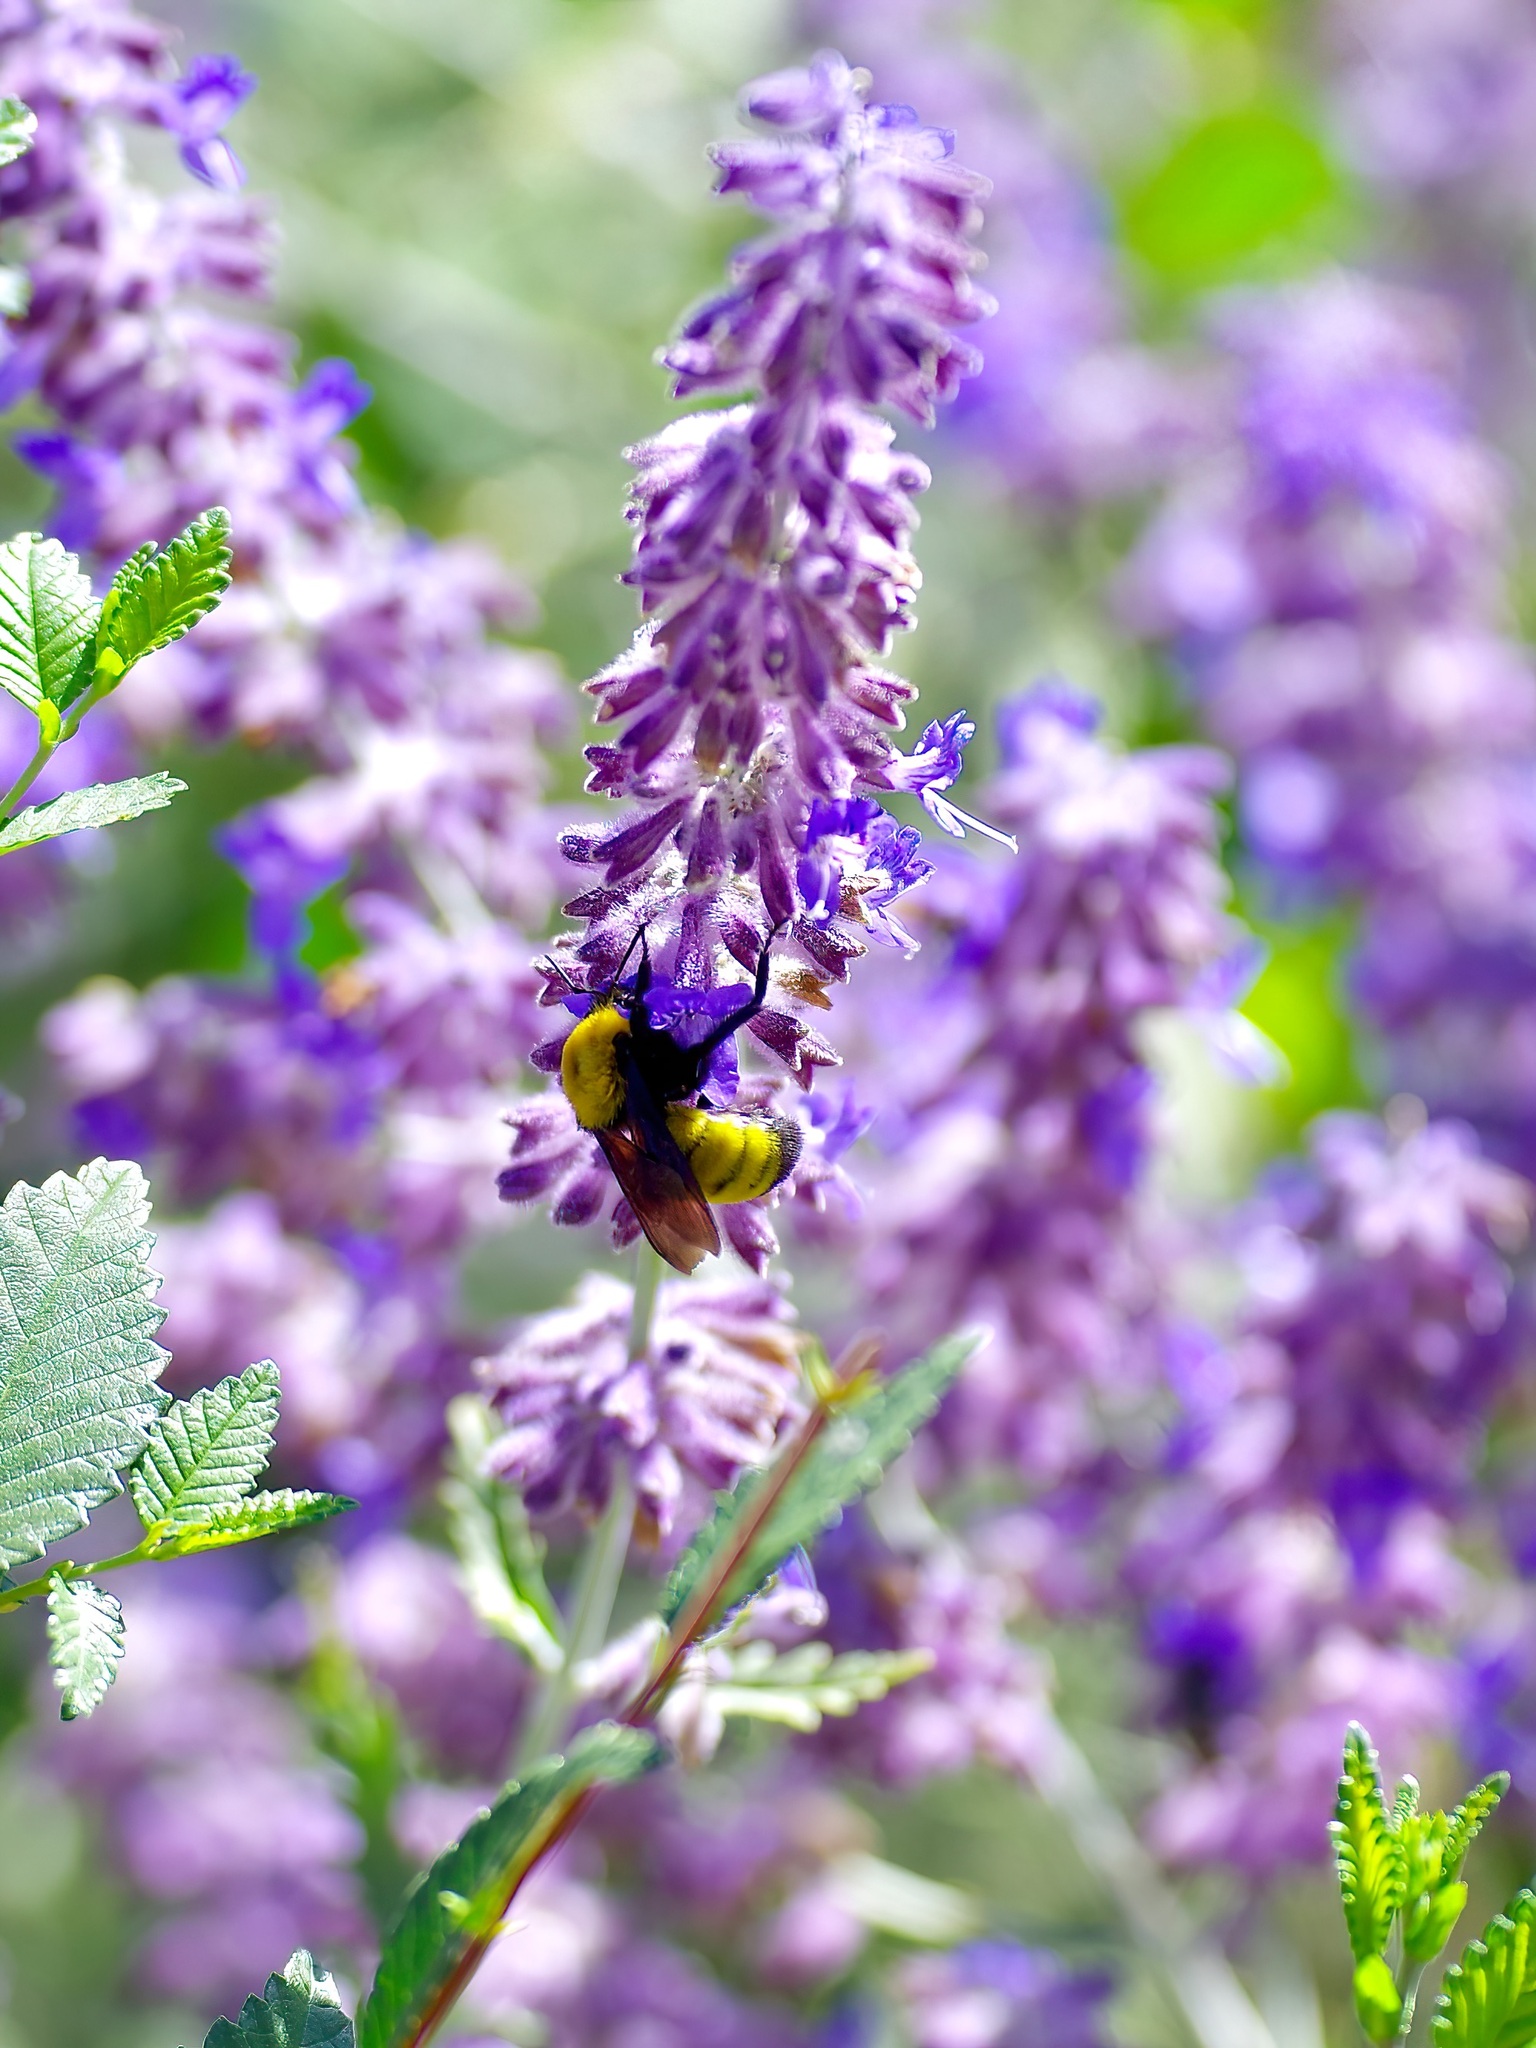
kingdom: Animalia
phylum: Arthropoda
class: Insecta
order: Hymenoptera
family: Apidae
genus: Bombus
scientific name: Bombus morrisoni
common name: Morrison bumble bee
